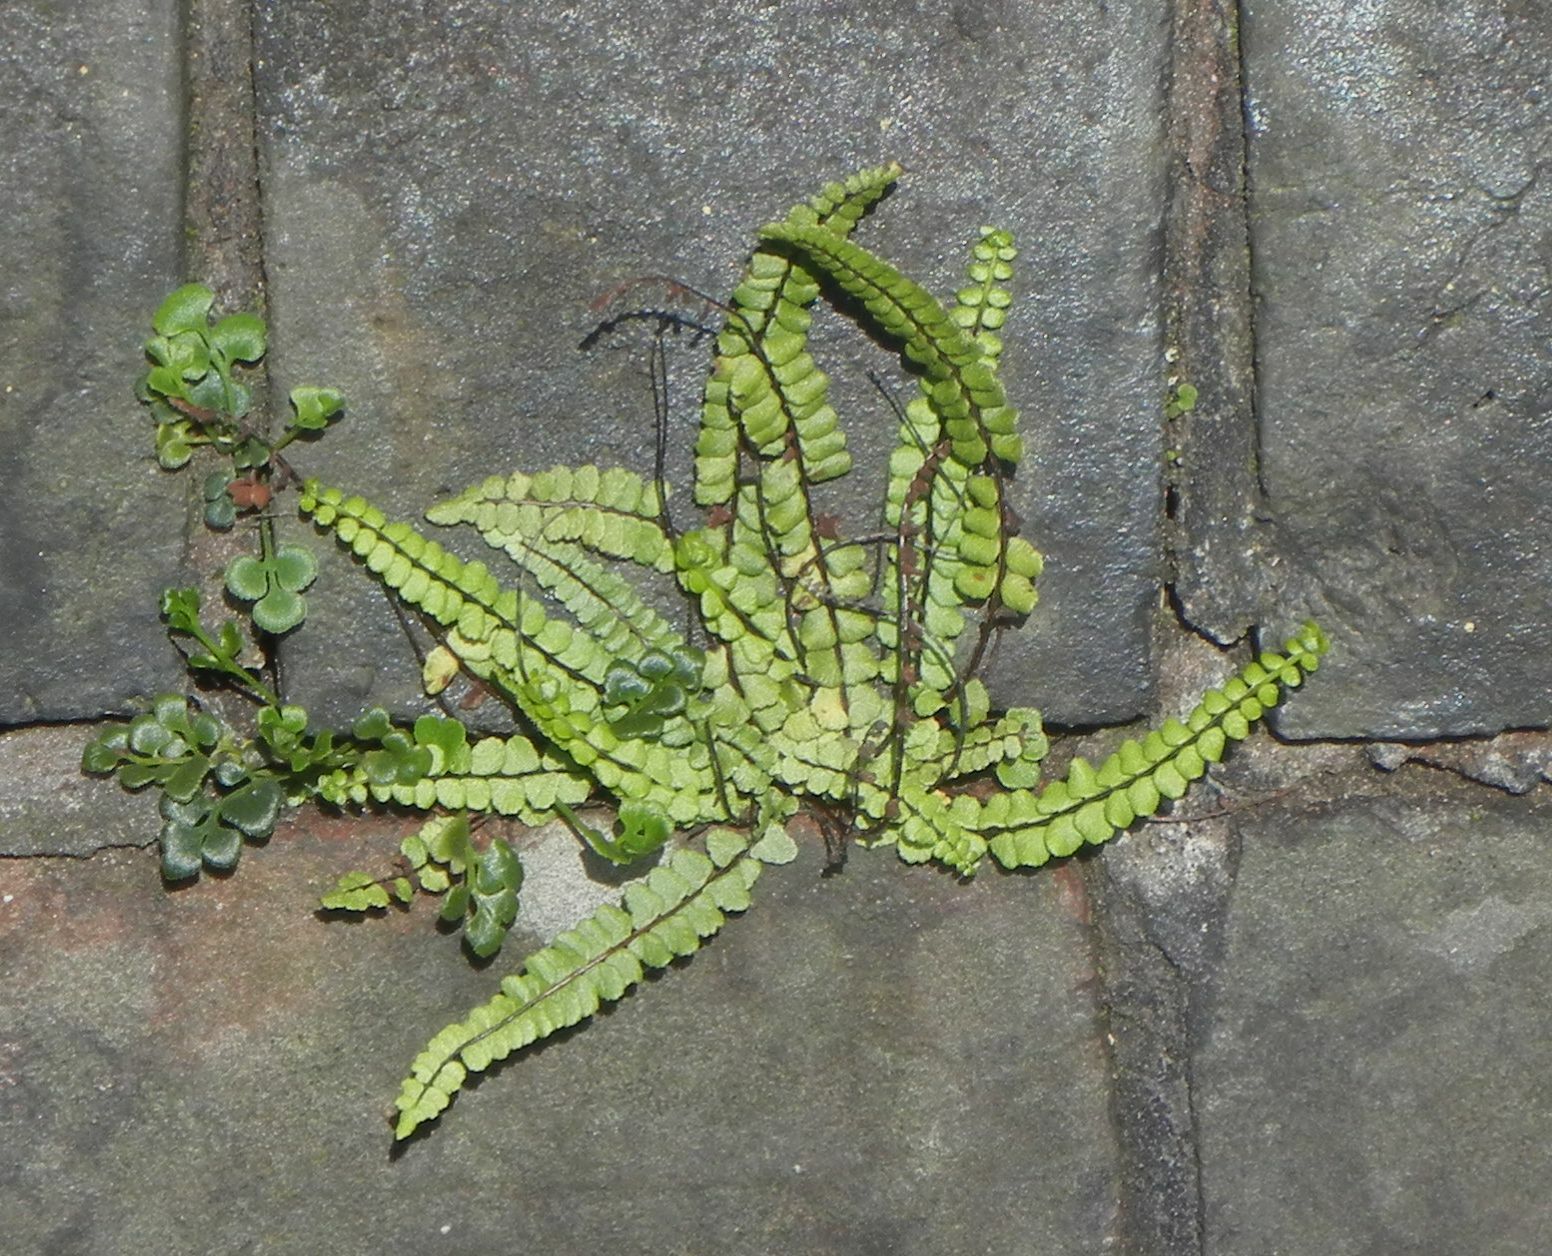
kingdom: Plantae
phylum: Tracheophyta
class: Polypodiopsida
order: Polypodiales
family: Aspleniaceae
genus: Asplenium
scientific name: Asplenium trichomanes
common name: Maidenhair spleenwort
